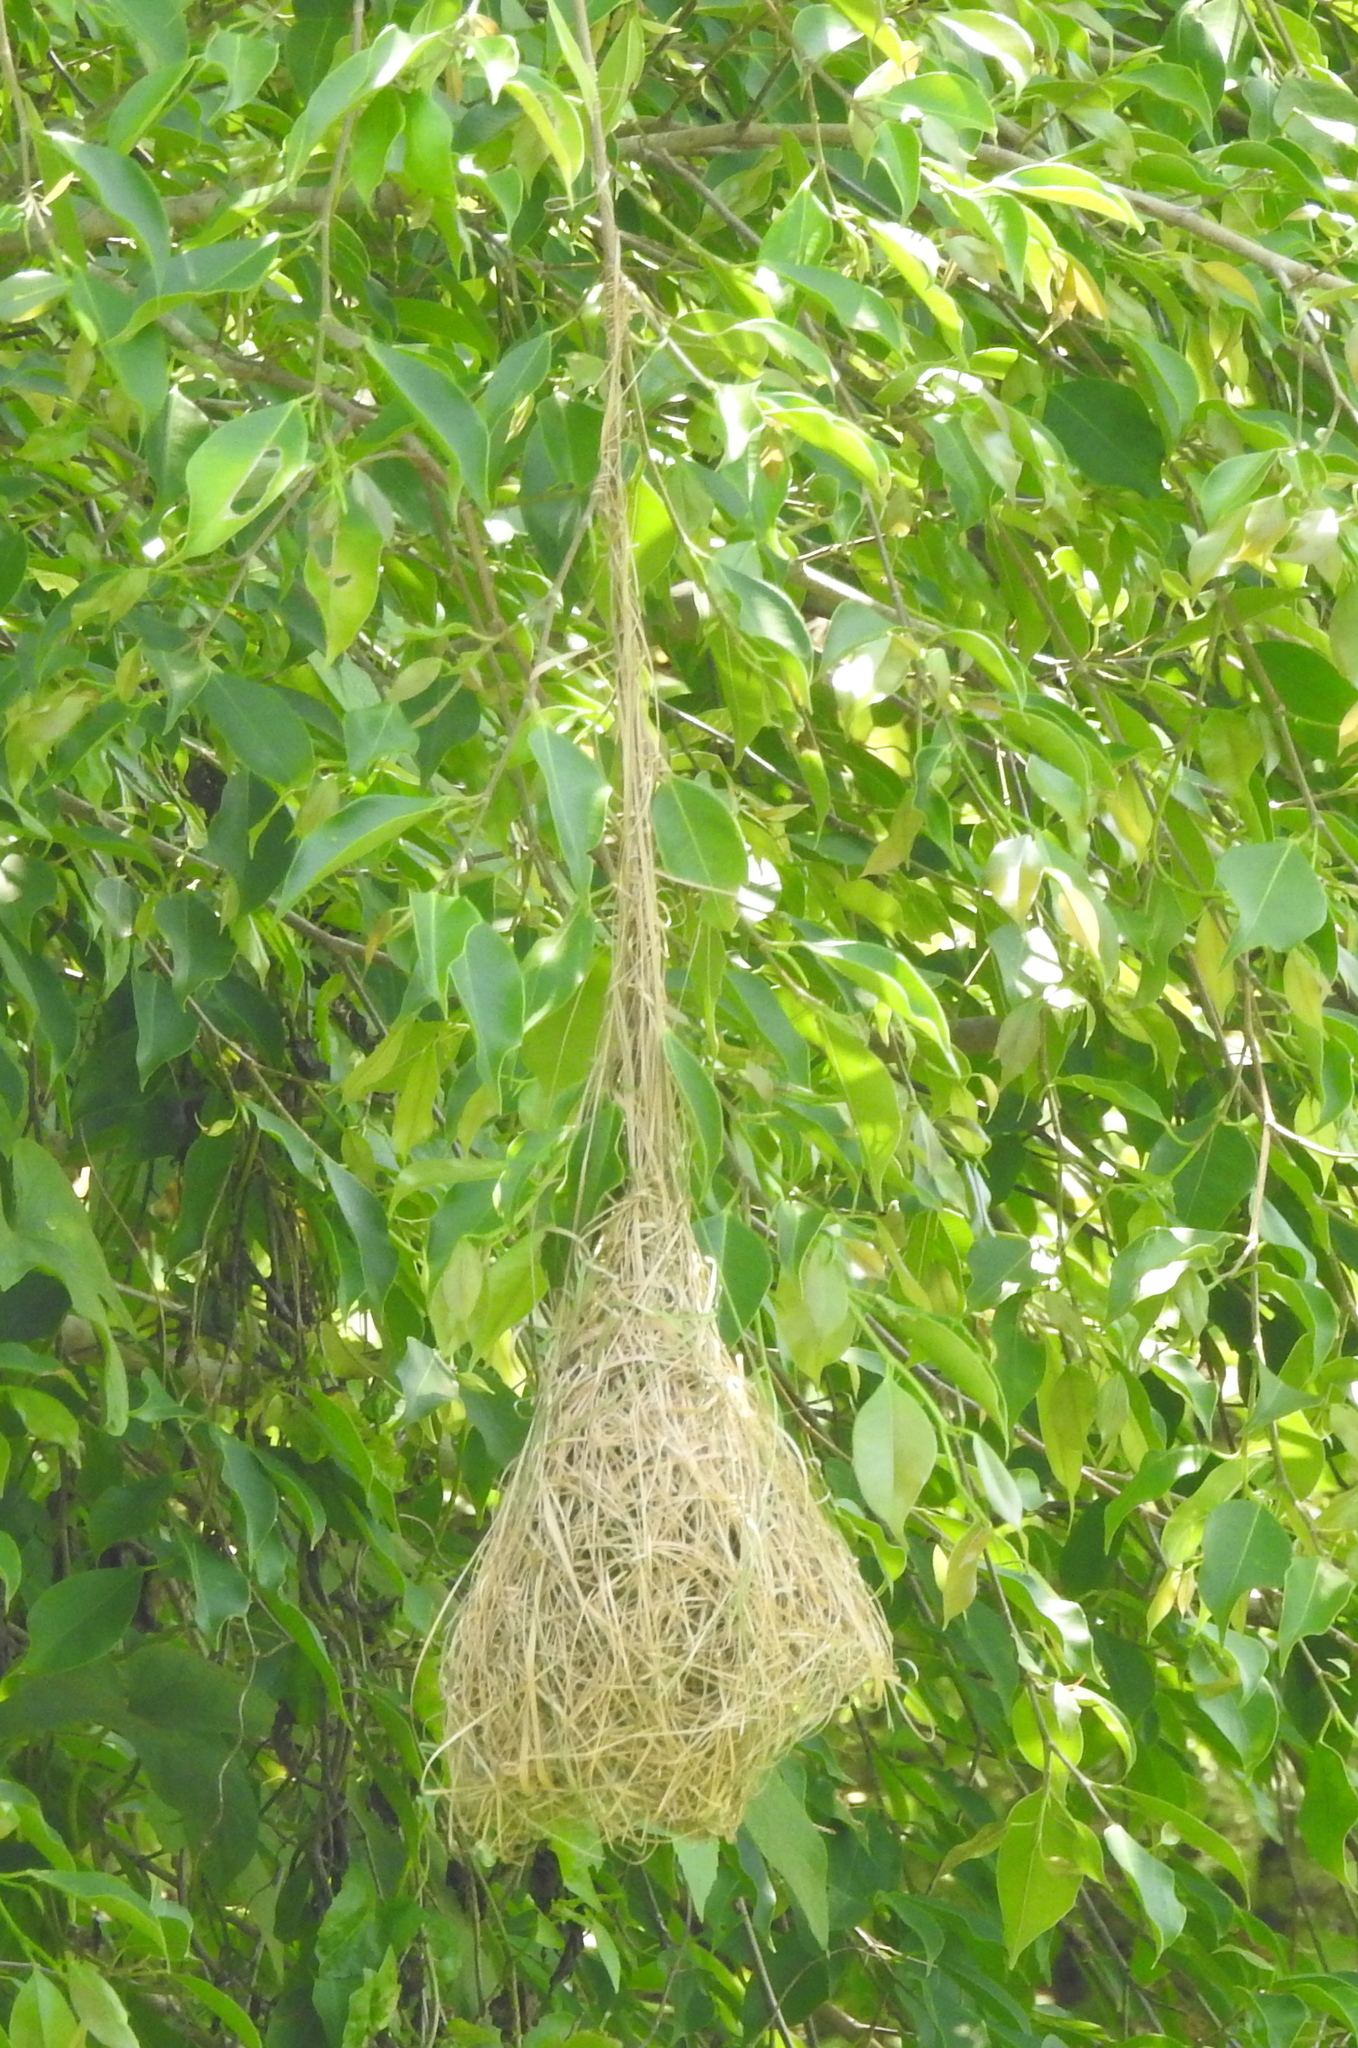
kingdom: Animalia
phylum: Chordata
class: Aves
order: Passeriformes
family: Ploceidae
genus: Ploceus
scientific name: Ploceus philippinus
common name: Baya weaver
